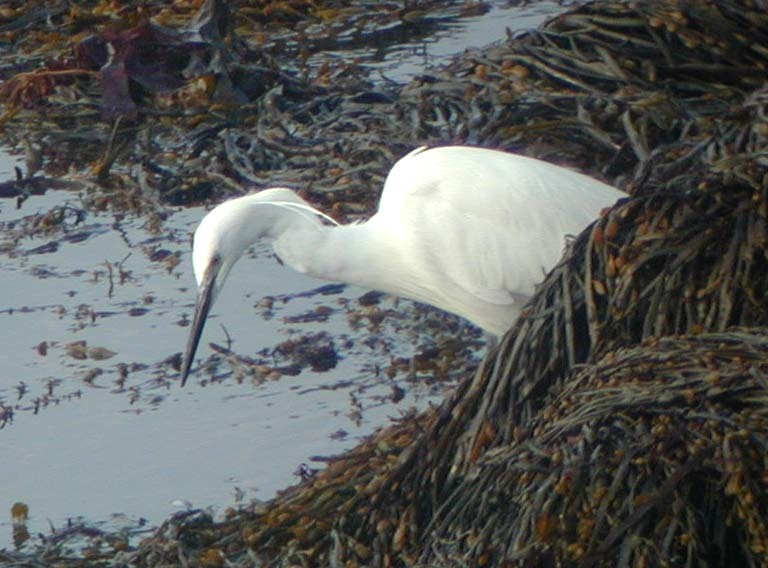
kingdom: Animalia
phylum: Chordata
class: Aves
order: Pelecaniformes
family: Ardeidae
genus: Egretta
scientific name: Egretta garzetta
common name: Little egret
